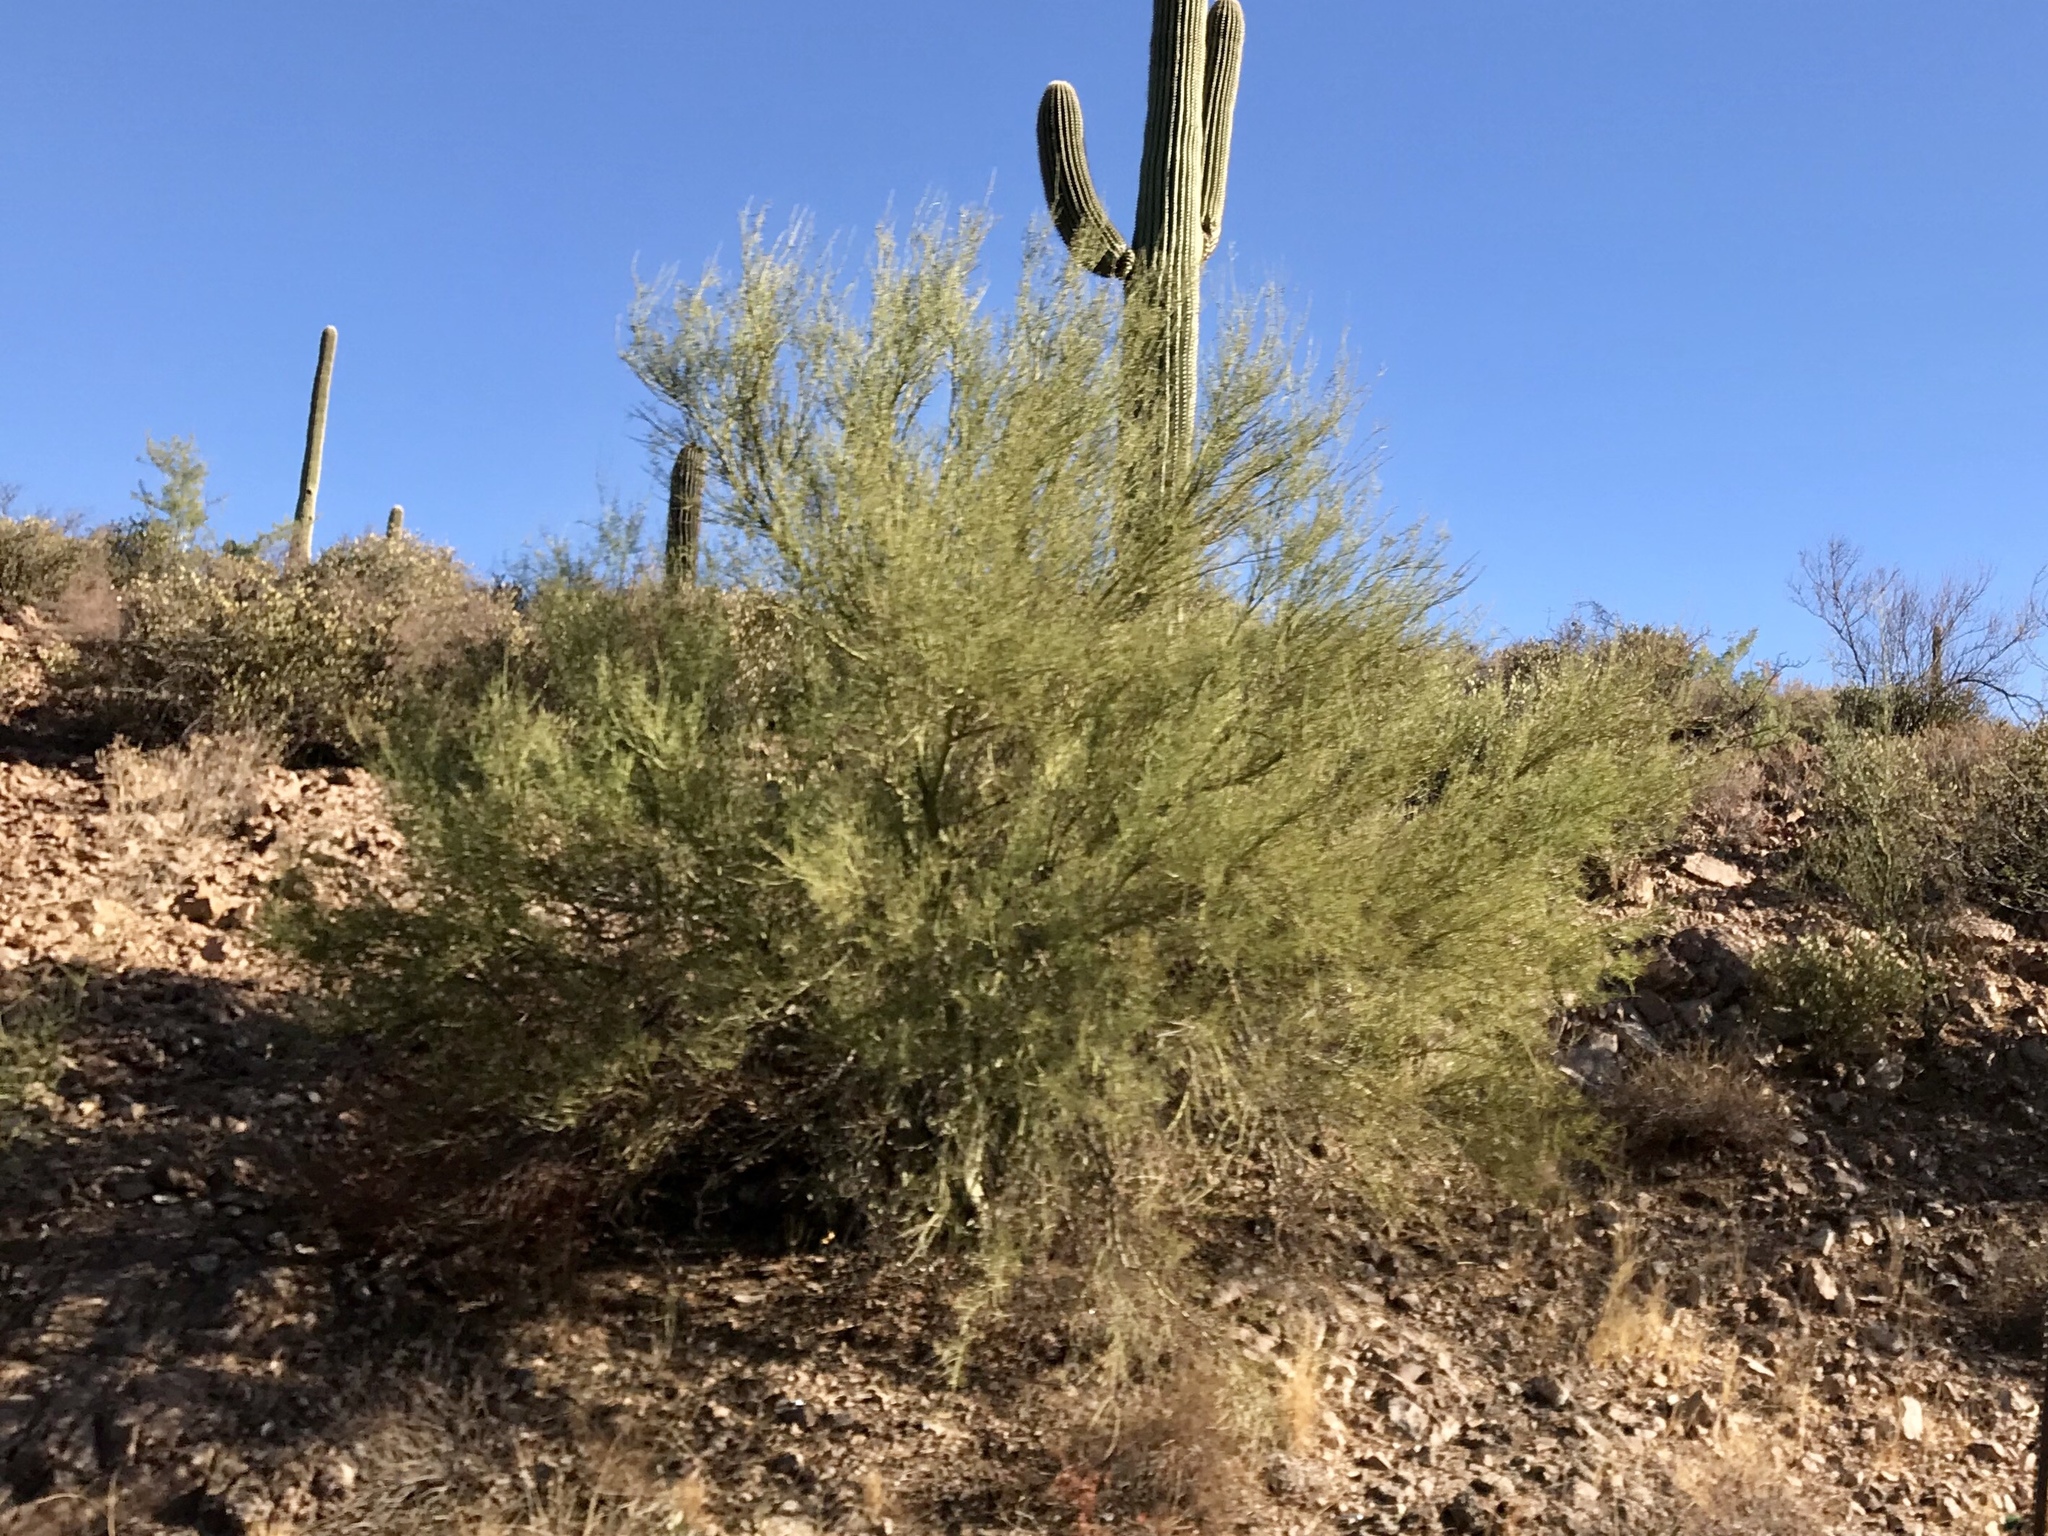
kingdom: Plantae
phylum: Tracheophyta
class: Magnoliopsida
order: Fabales
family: Fabaceae
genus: Parkinsonia
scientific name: Parkinsonia microphylla
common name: Yellow paloverde
